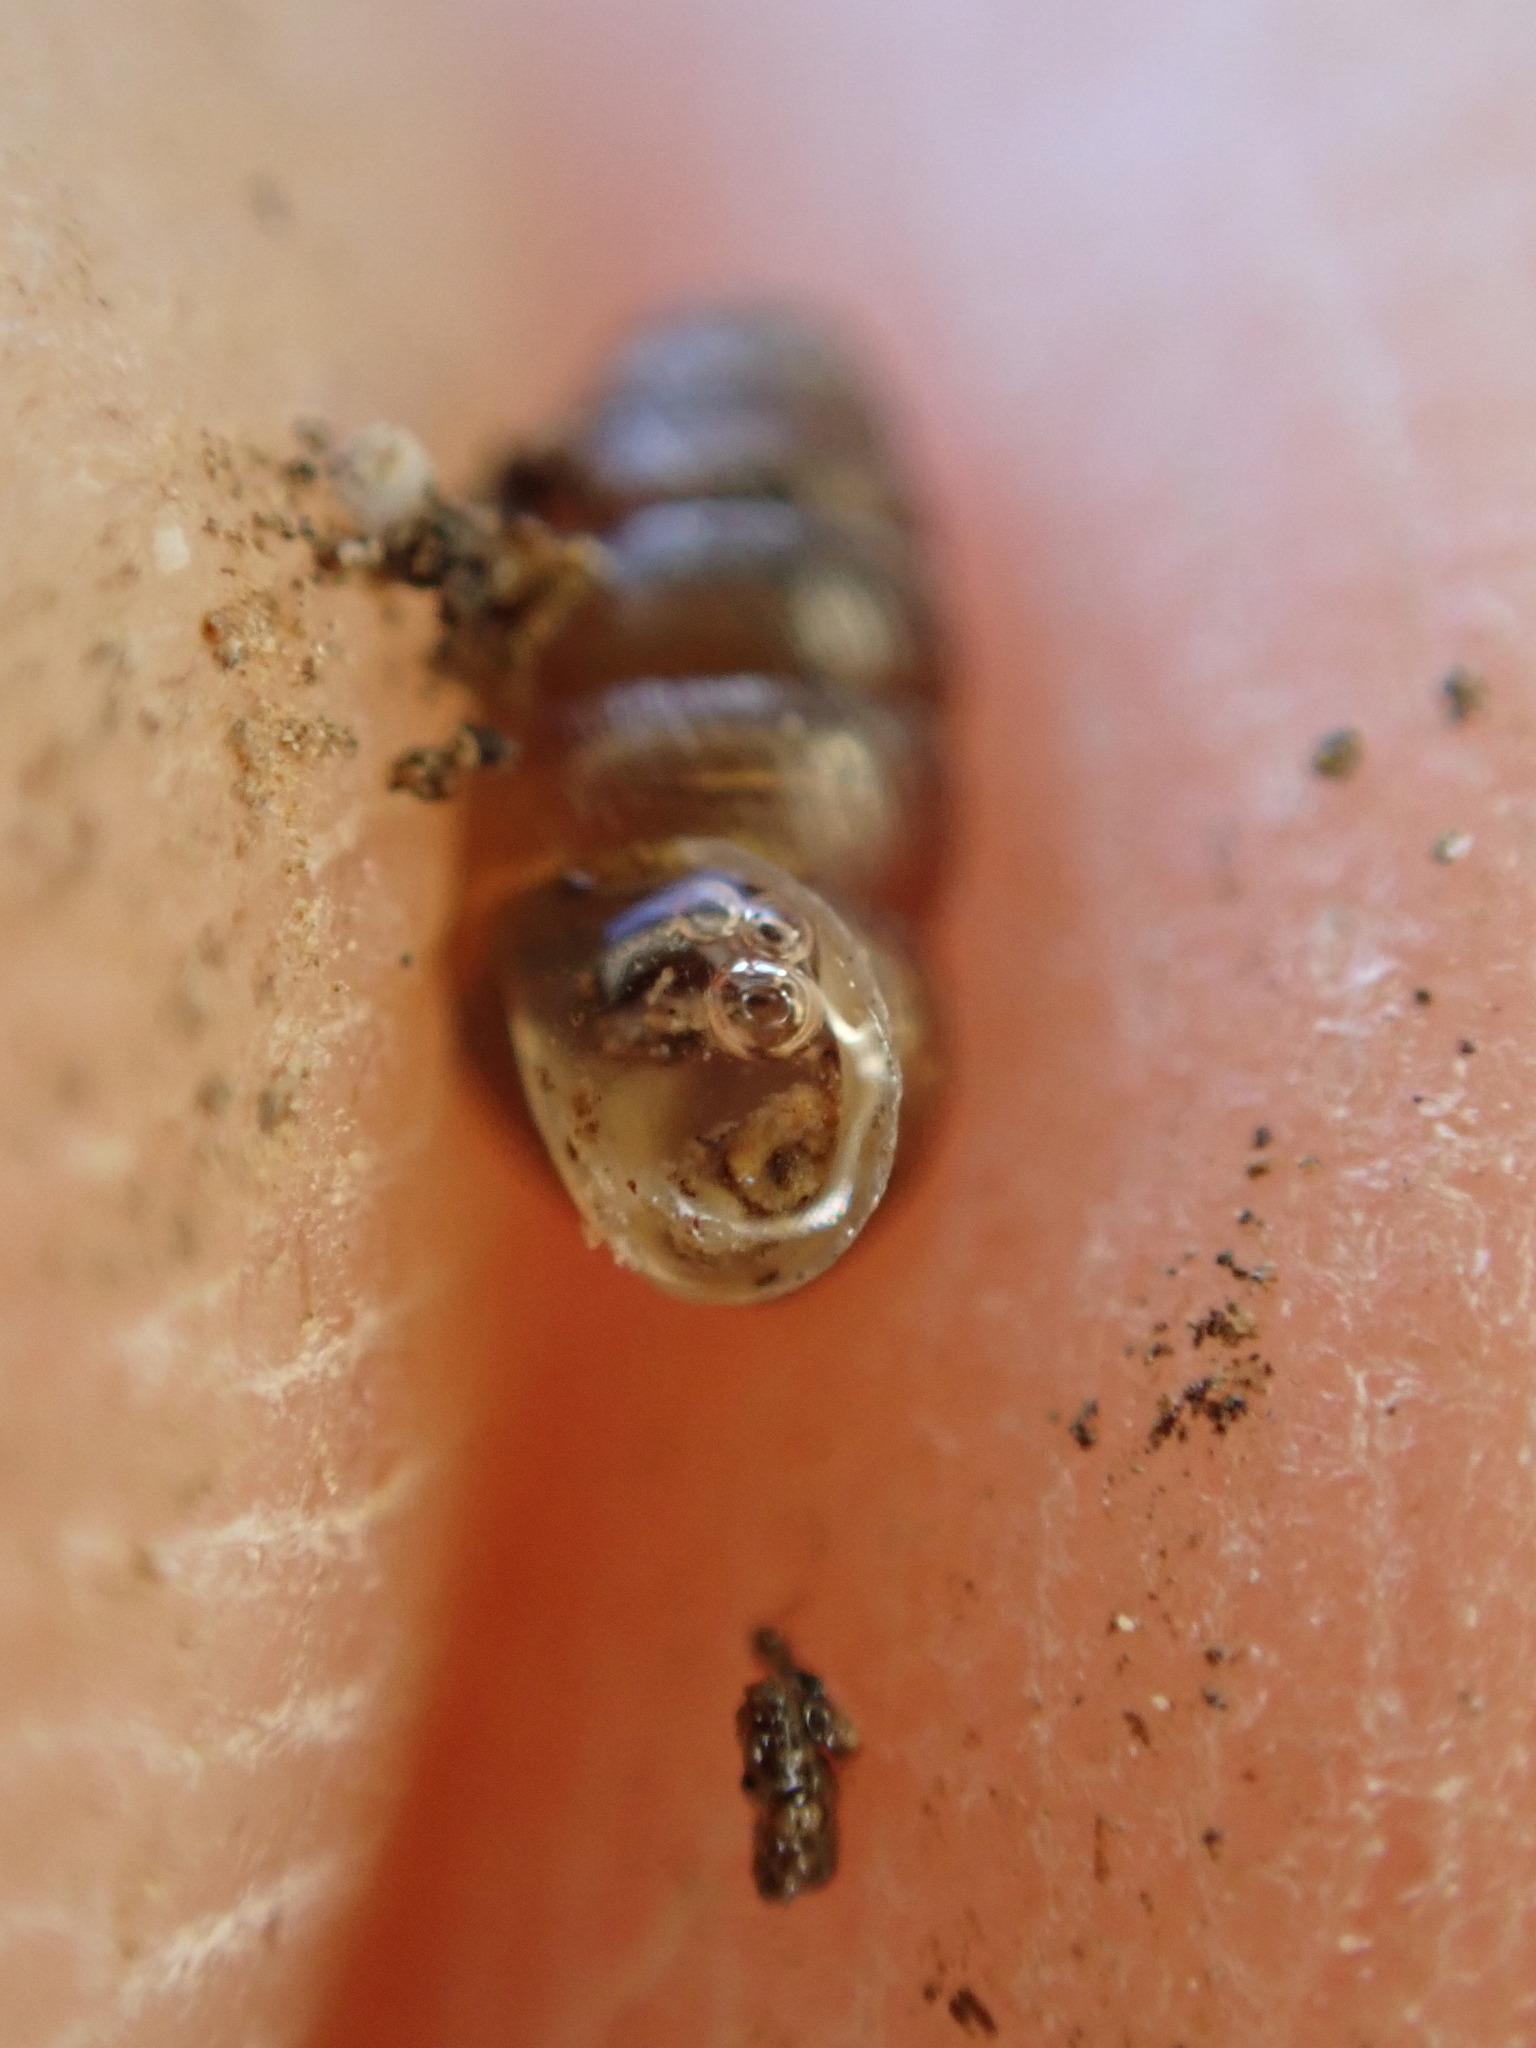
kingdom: Animalia
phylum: Mollusca
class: Gastropoda
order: Stylommatophora
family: Lauriidae
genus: Lauria
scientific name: Lauria cylindracea
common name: Common chrysalis snail
